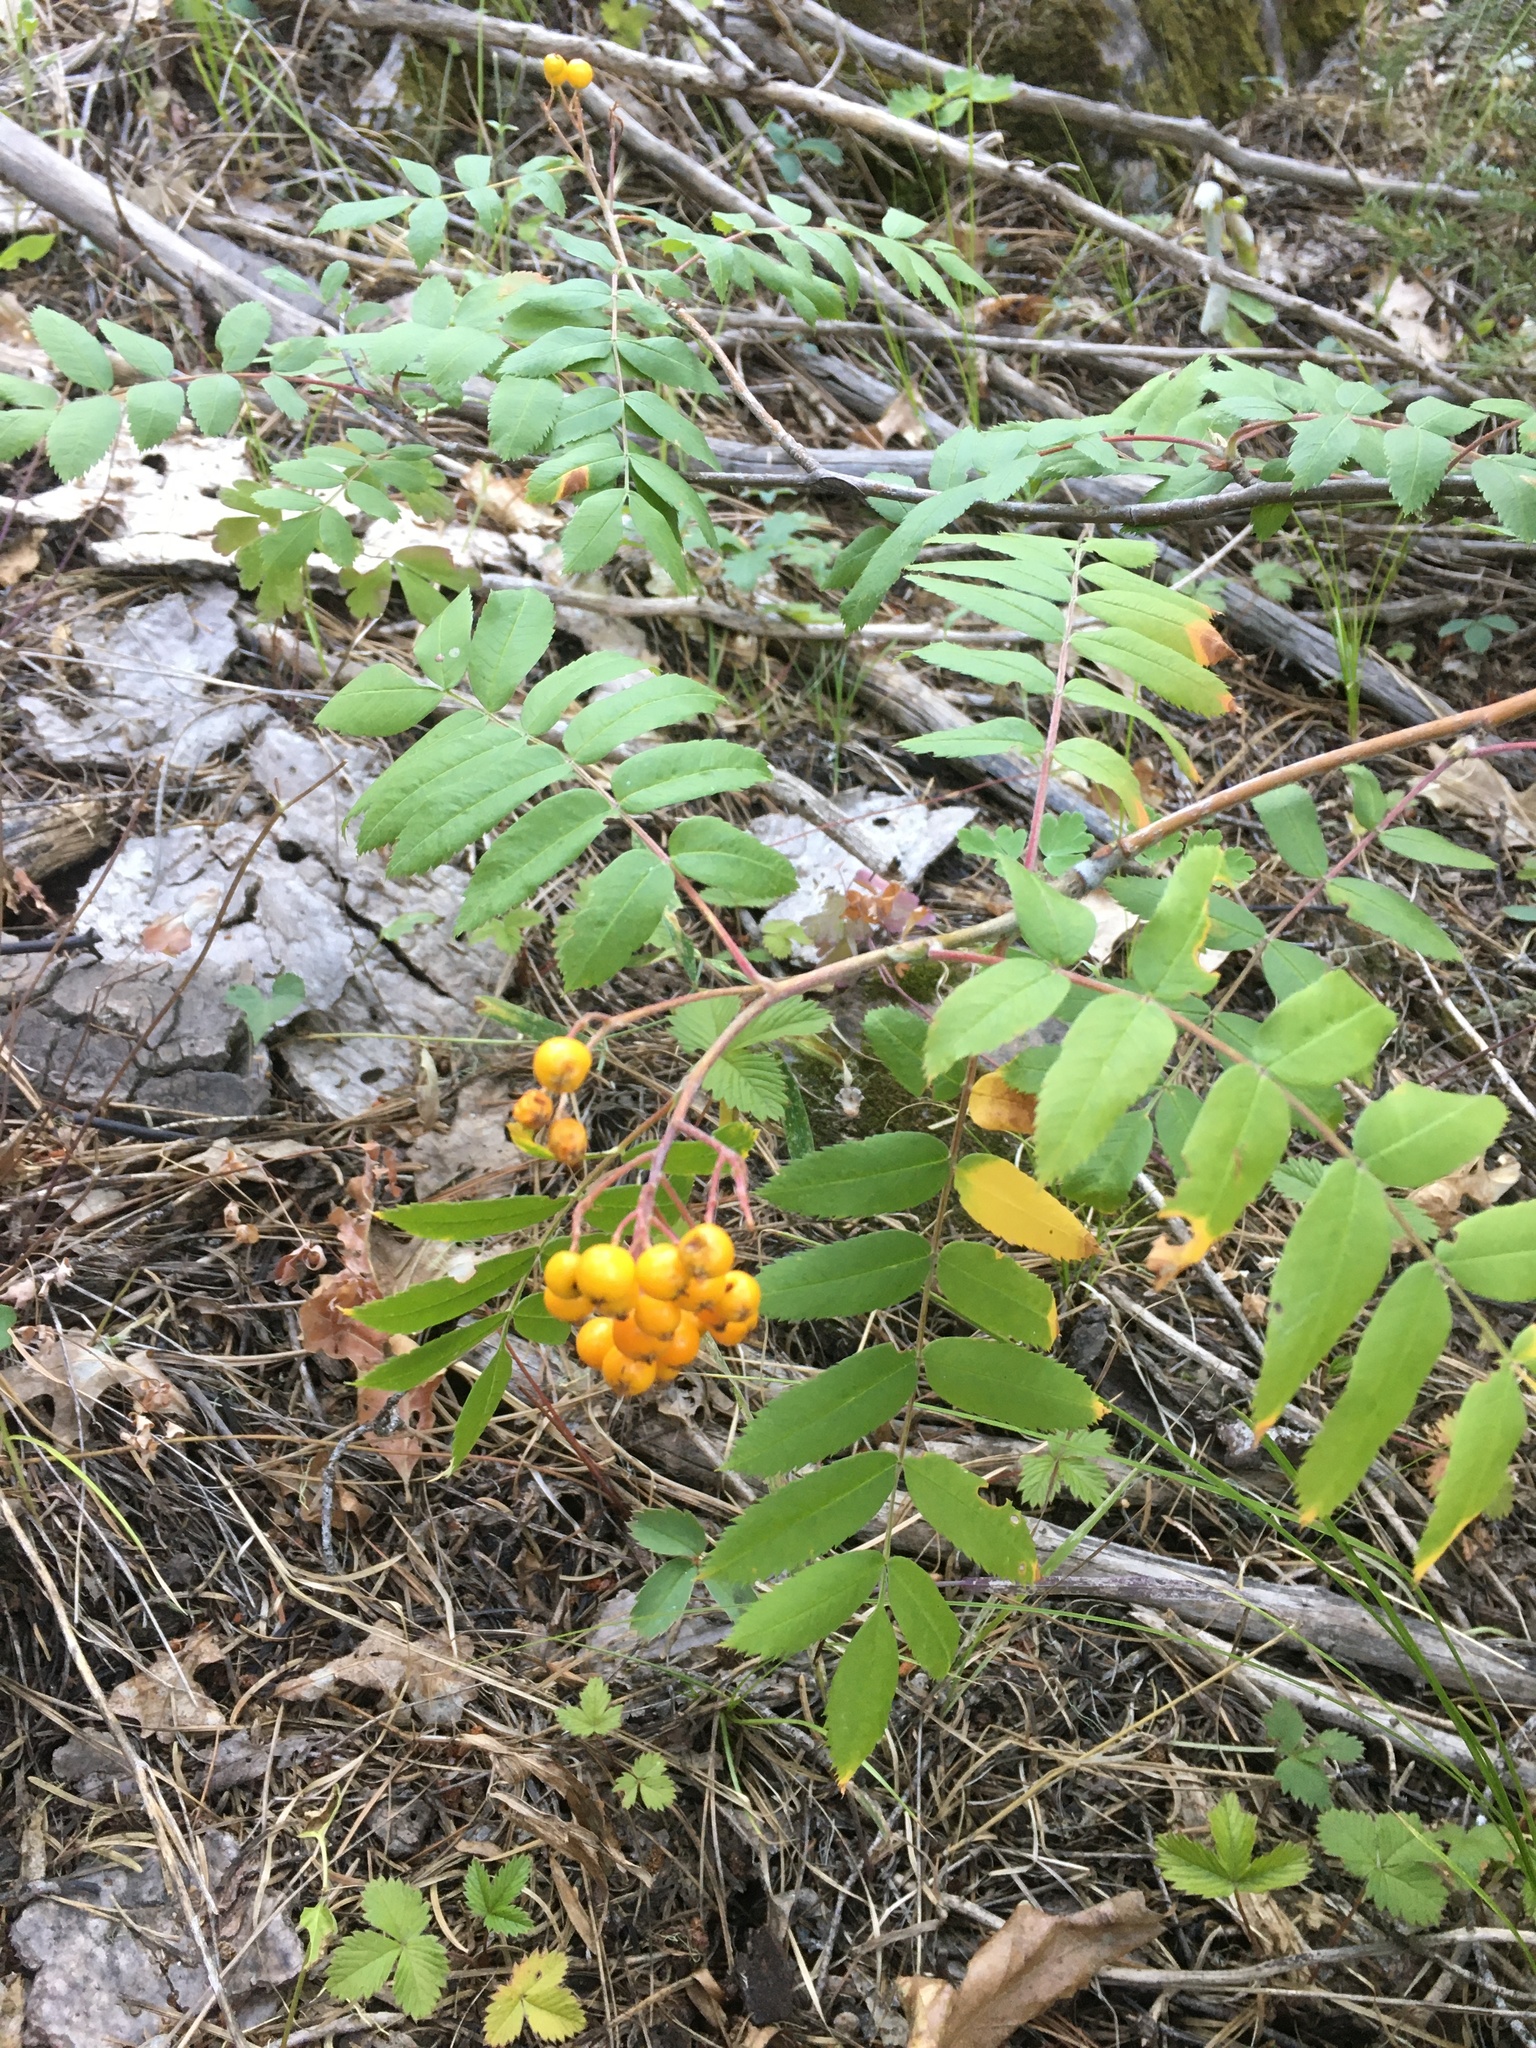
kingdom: Plantae
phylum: Tracheophyta
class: Magnoliopsida
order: Rosales
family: Rosaceae
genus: Sorbus
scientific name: Sorbus scopulina
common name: Greene's mountain-ash
